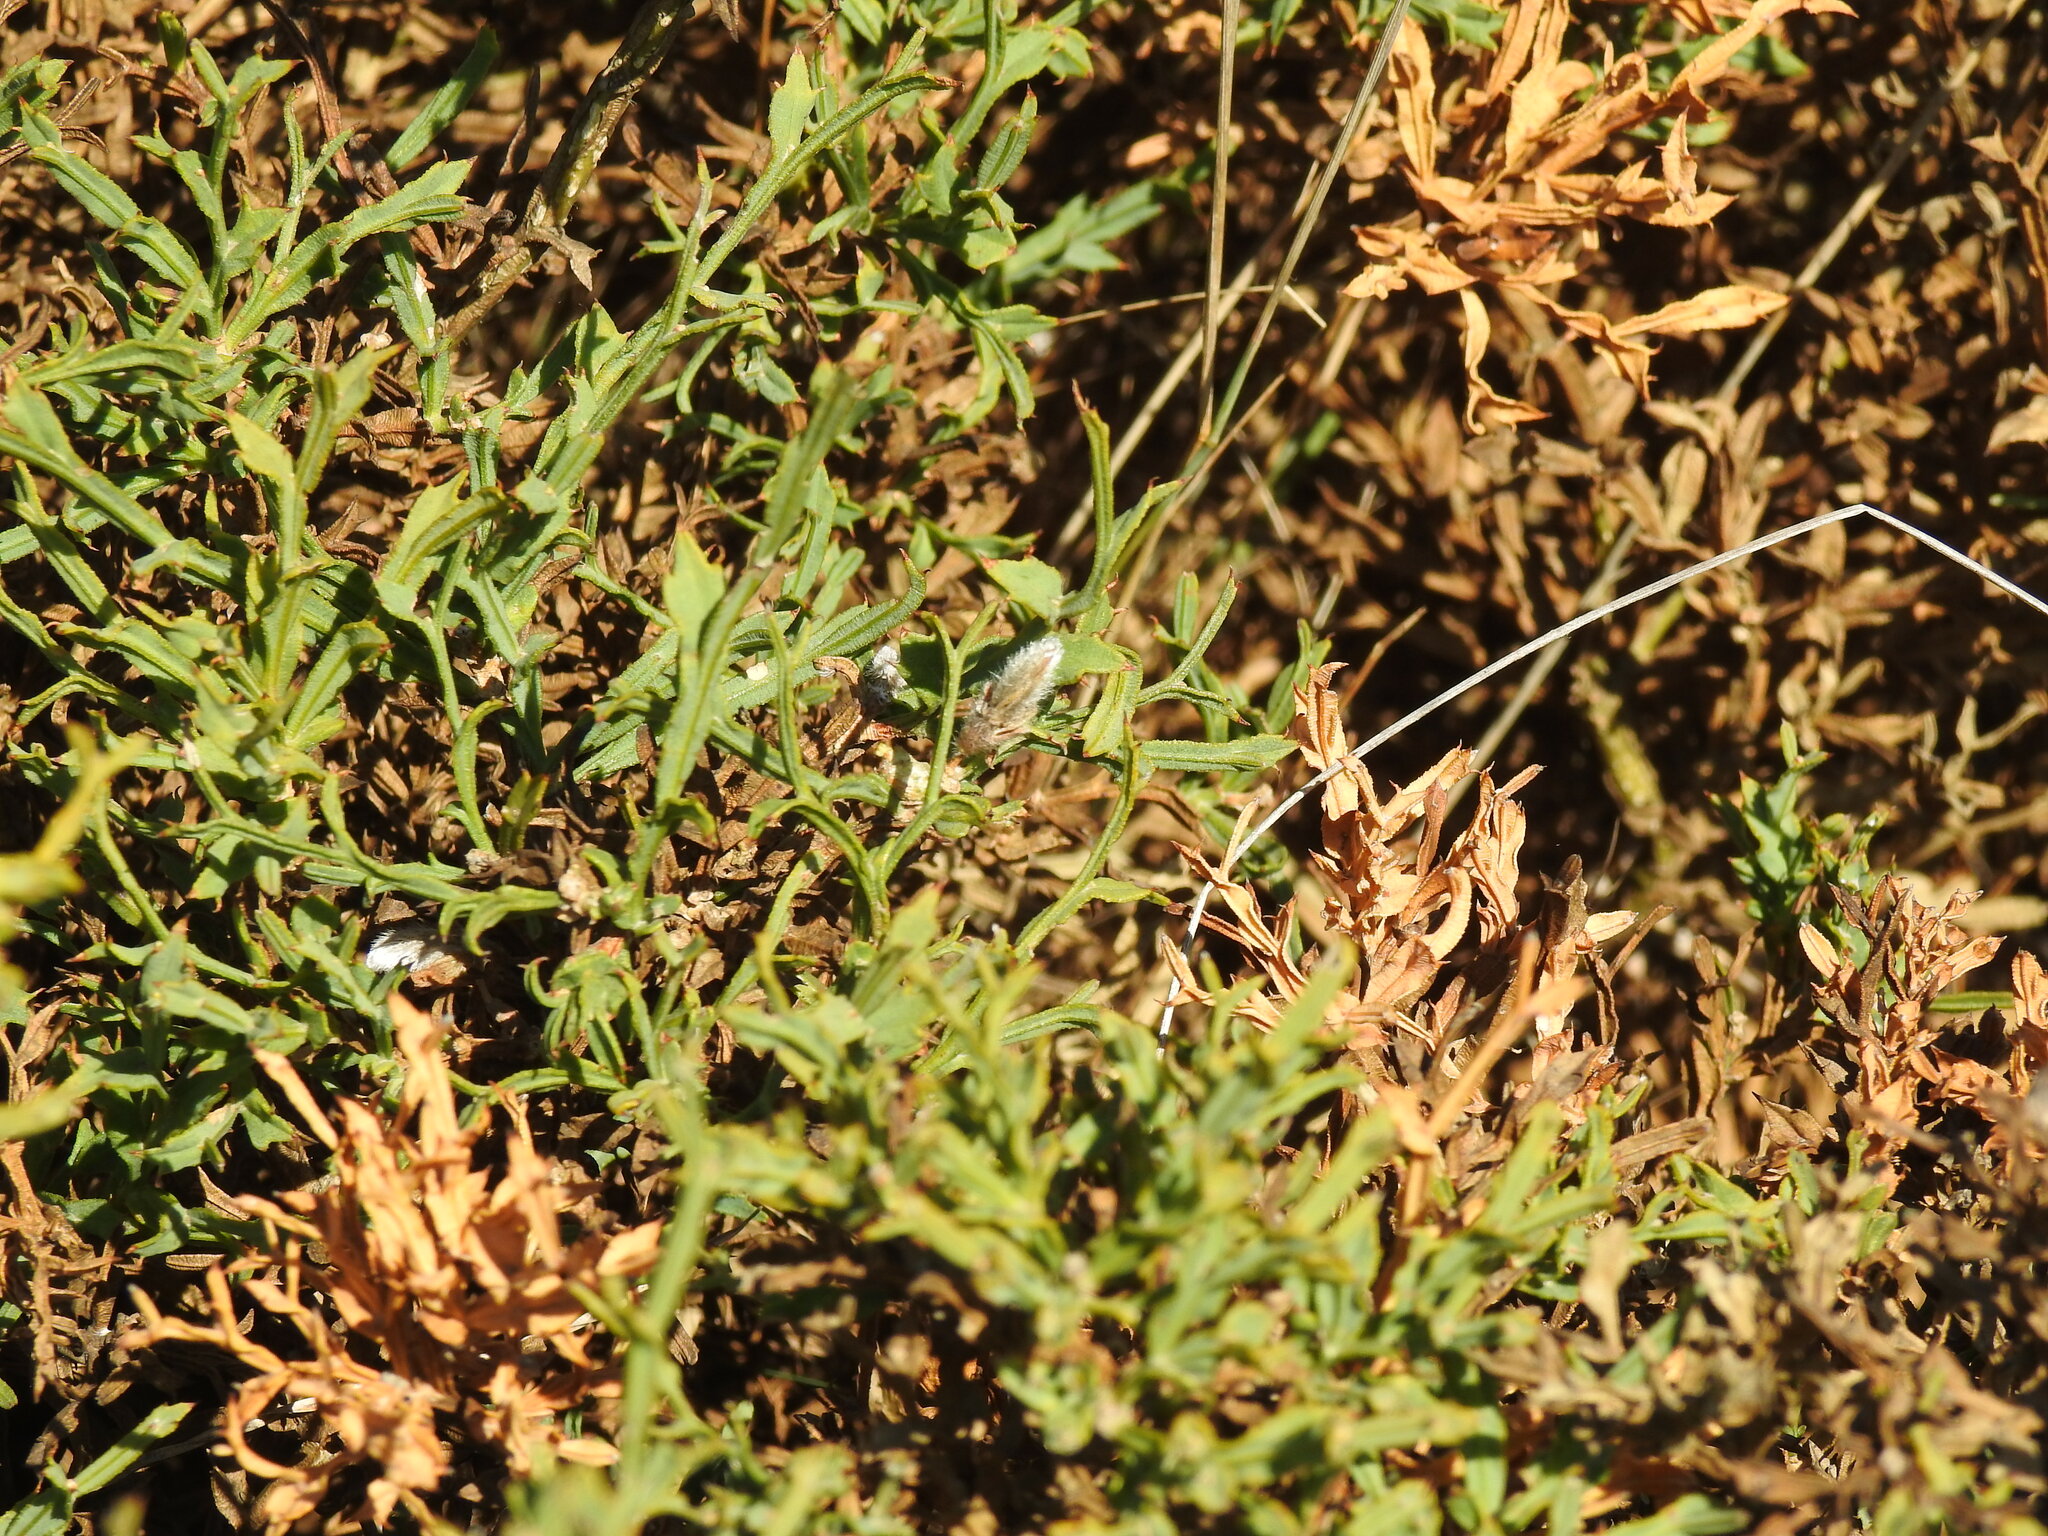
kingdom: Plantae
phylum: Tracheophyta
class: Magnoliopsida
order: Fabales
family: Fabaceae
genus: Genista
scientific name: Genista tridentata
